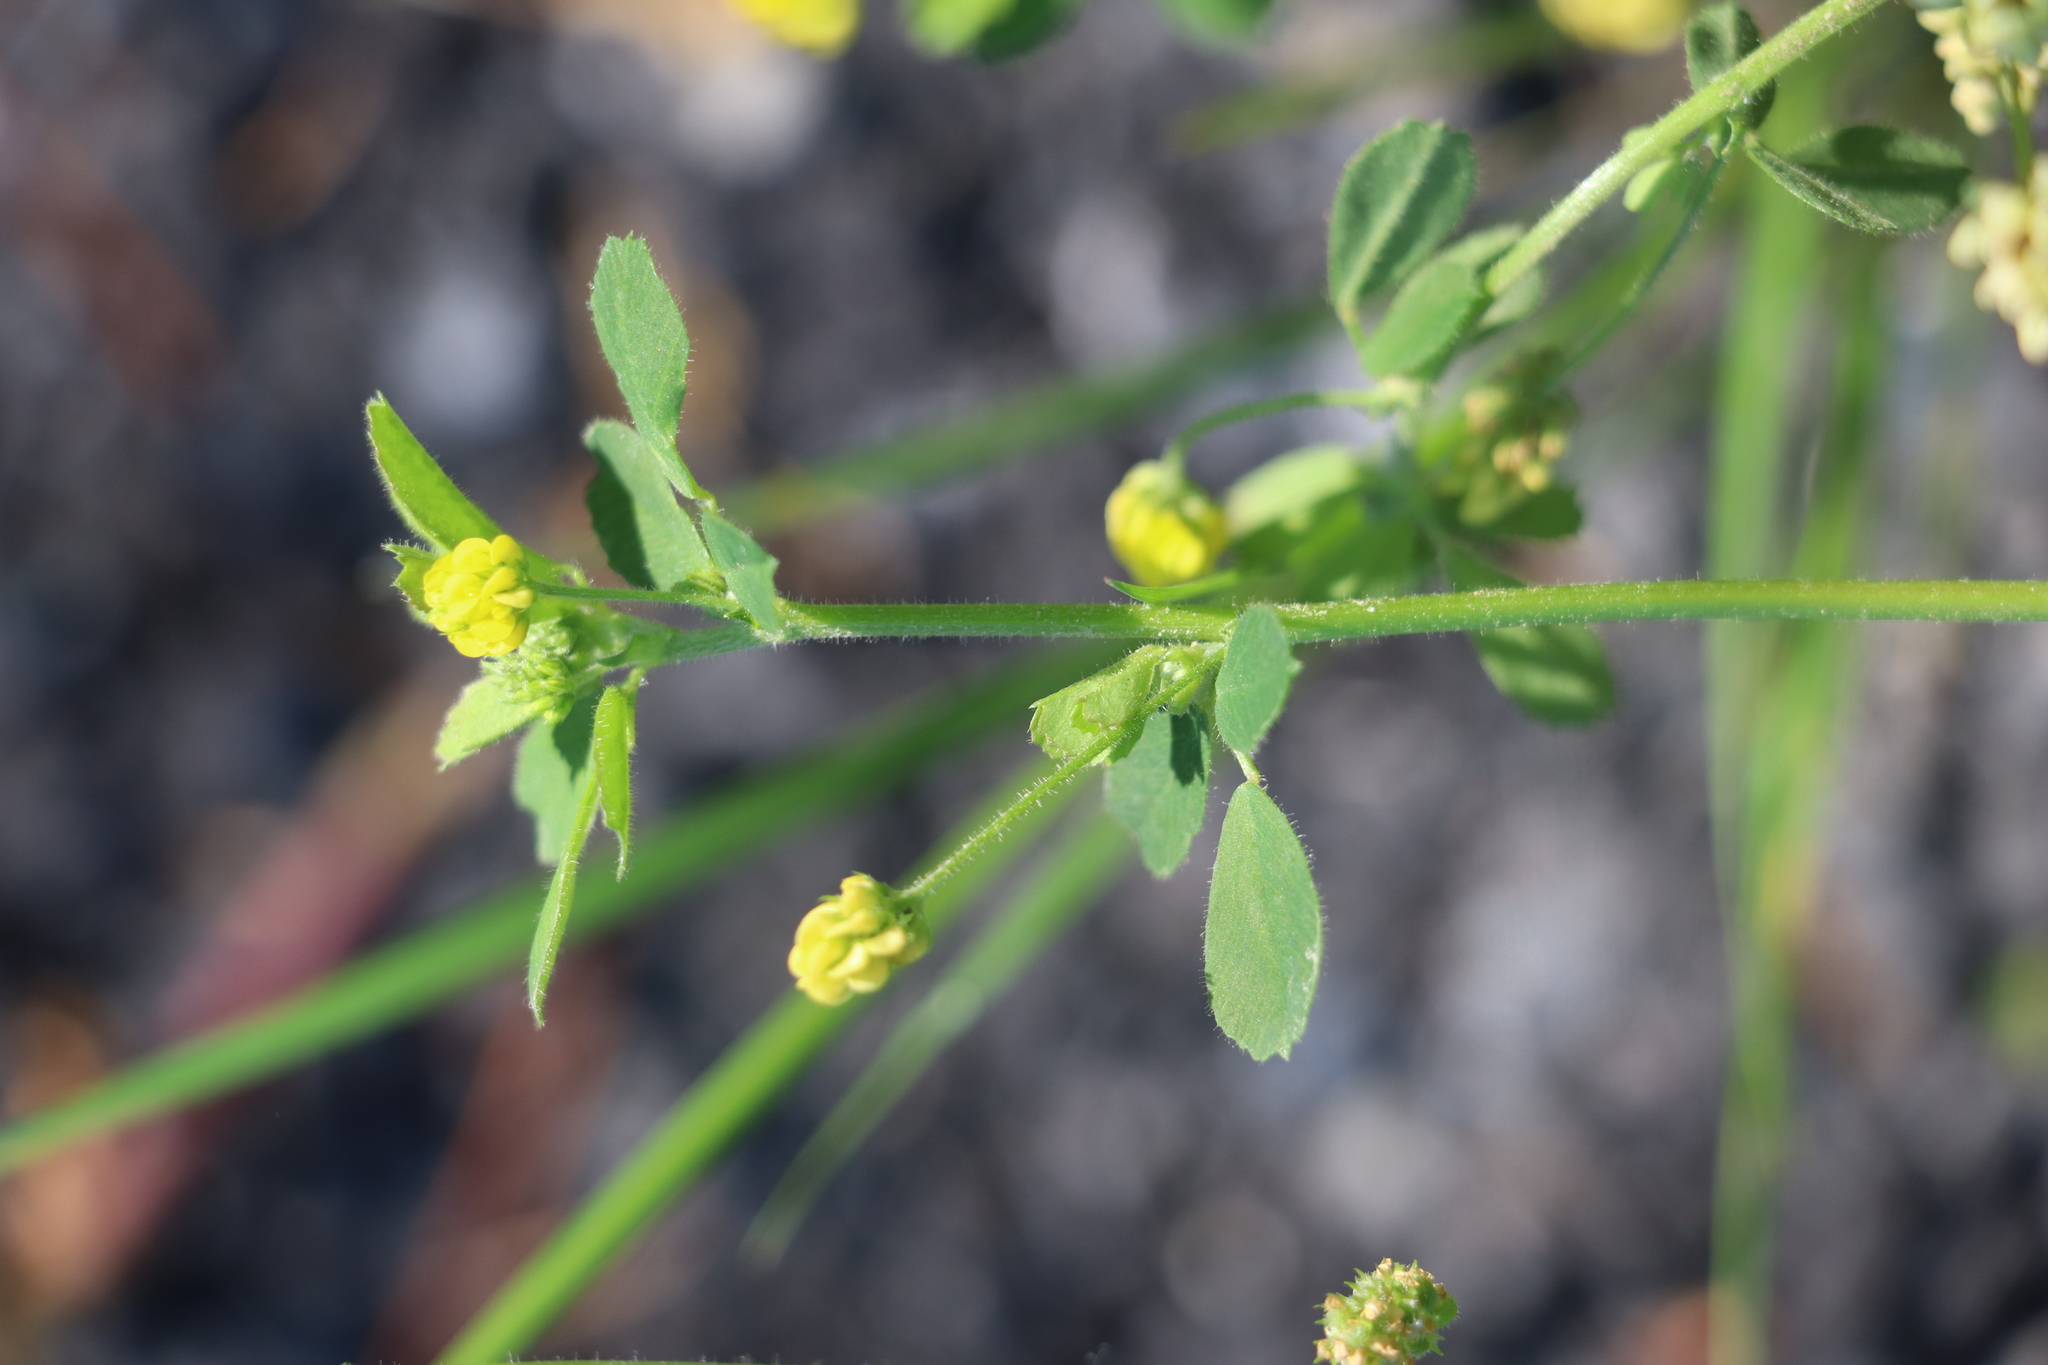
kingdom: Plantae
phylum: Tracheophyta
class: Magnoliopsida
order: Fabales
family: Fabaceae
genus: Medicago
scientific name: Medicago lupulina
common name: Black medick
